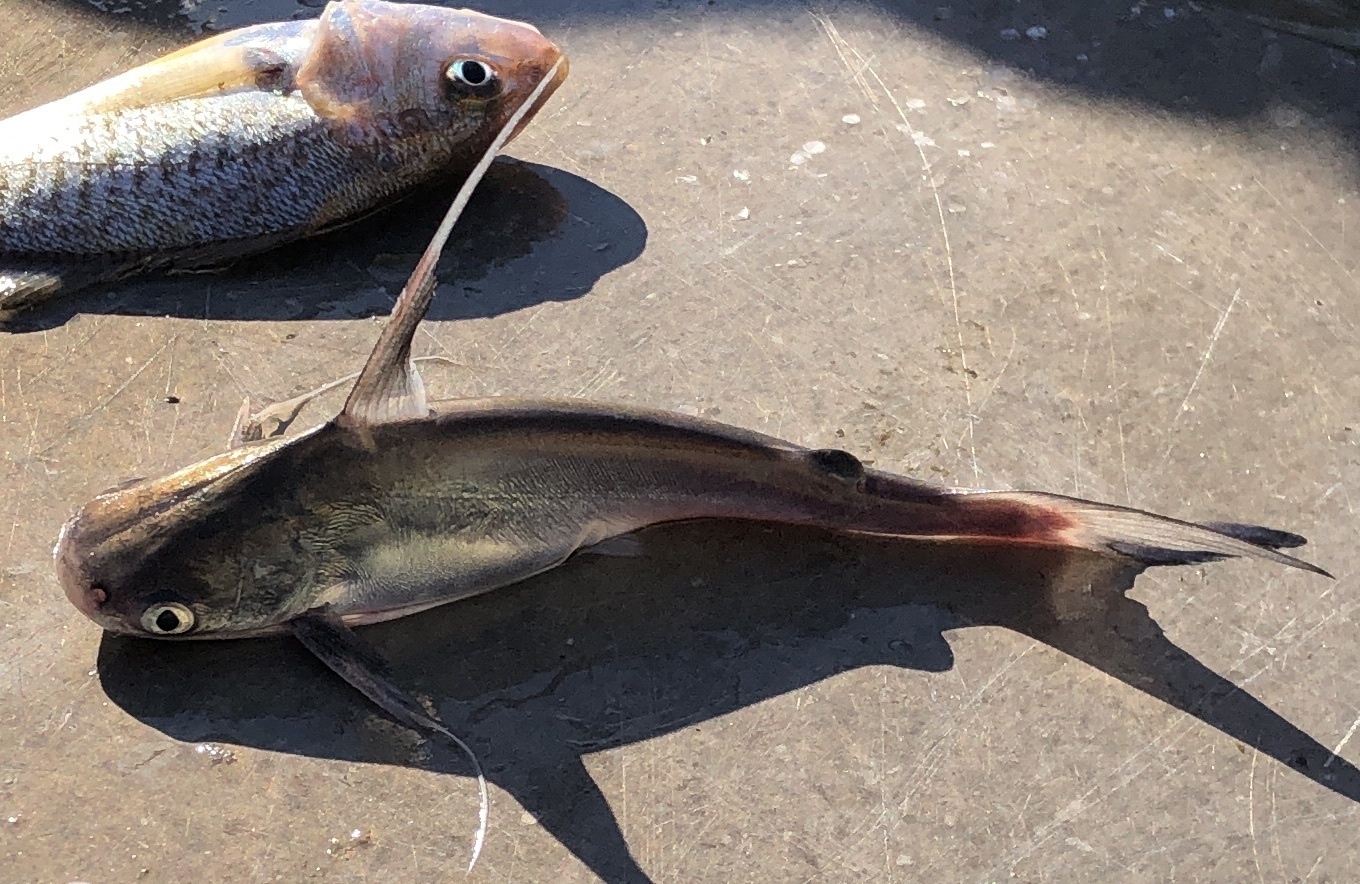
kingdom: Animalia
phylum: Chordata
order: Siluriformes
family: Ariidae
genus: Bagre
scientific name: Bagre marinus
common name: Gafftopsail sea catfish
